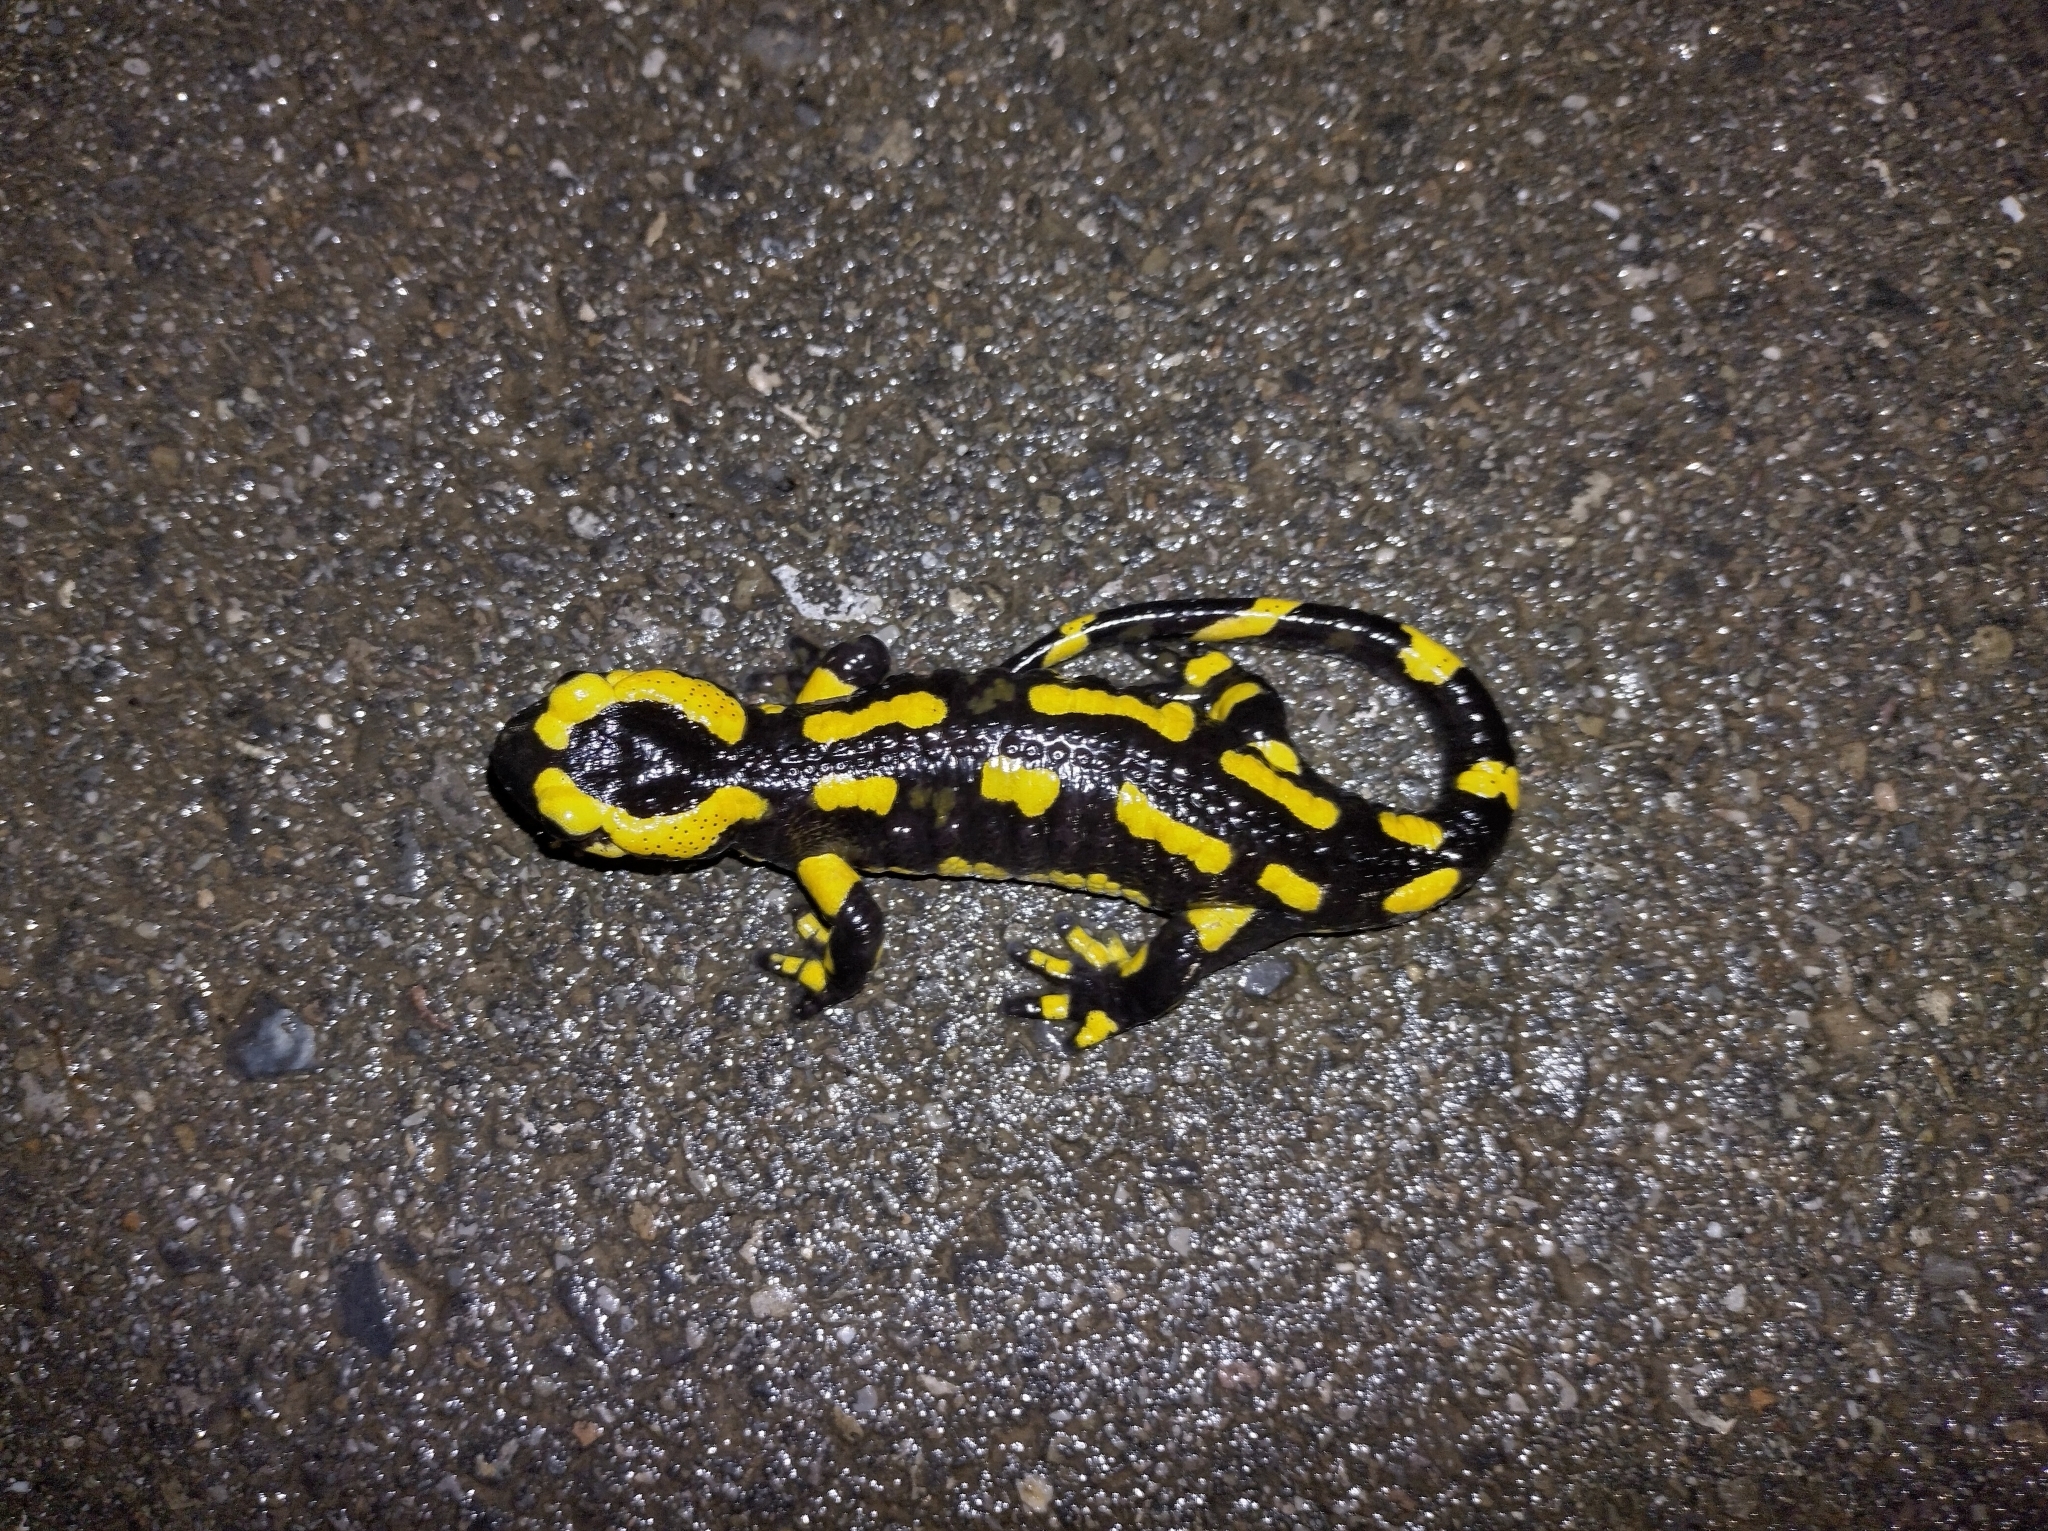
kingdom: Animalia
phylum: Chordata
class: Amphibia
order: Caudata
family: Salamandridae
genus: Salamandra
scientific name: Salamandra salamandra
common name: Fire salamander
